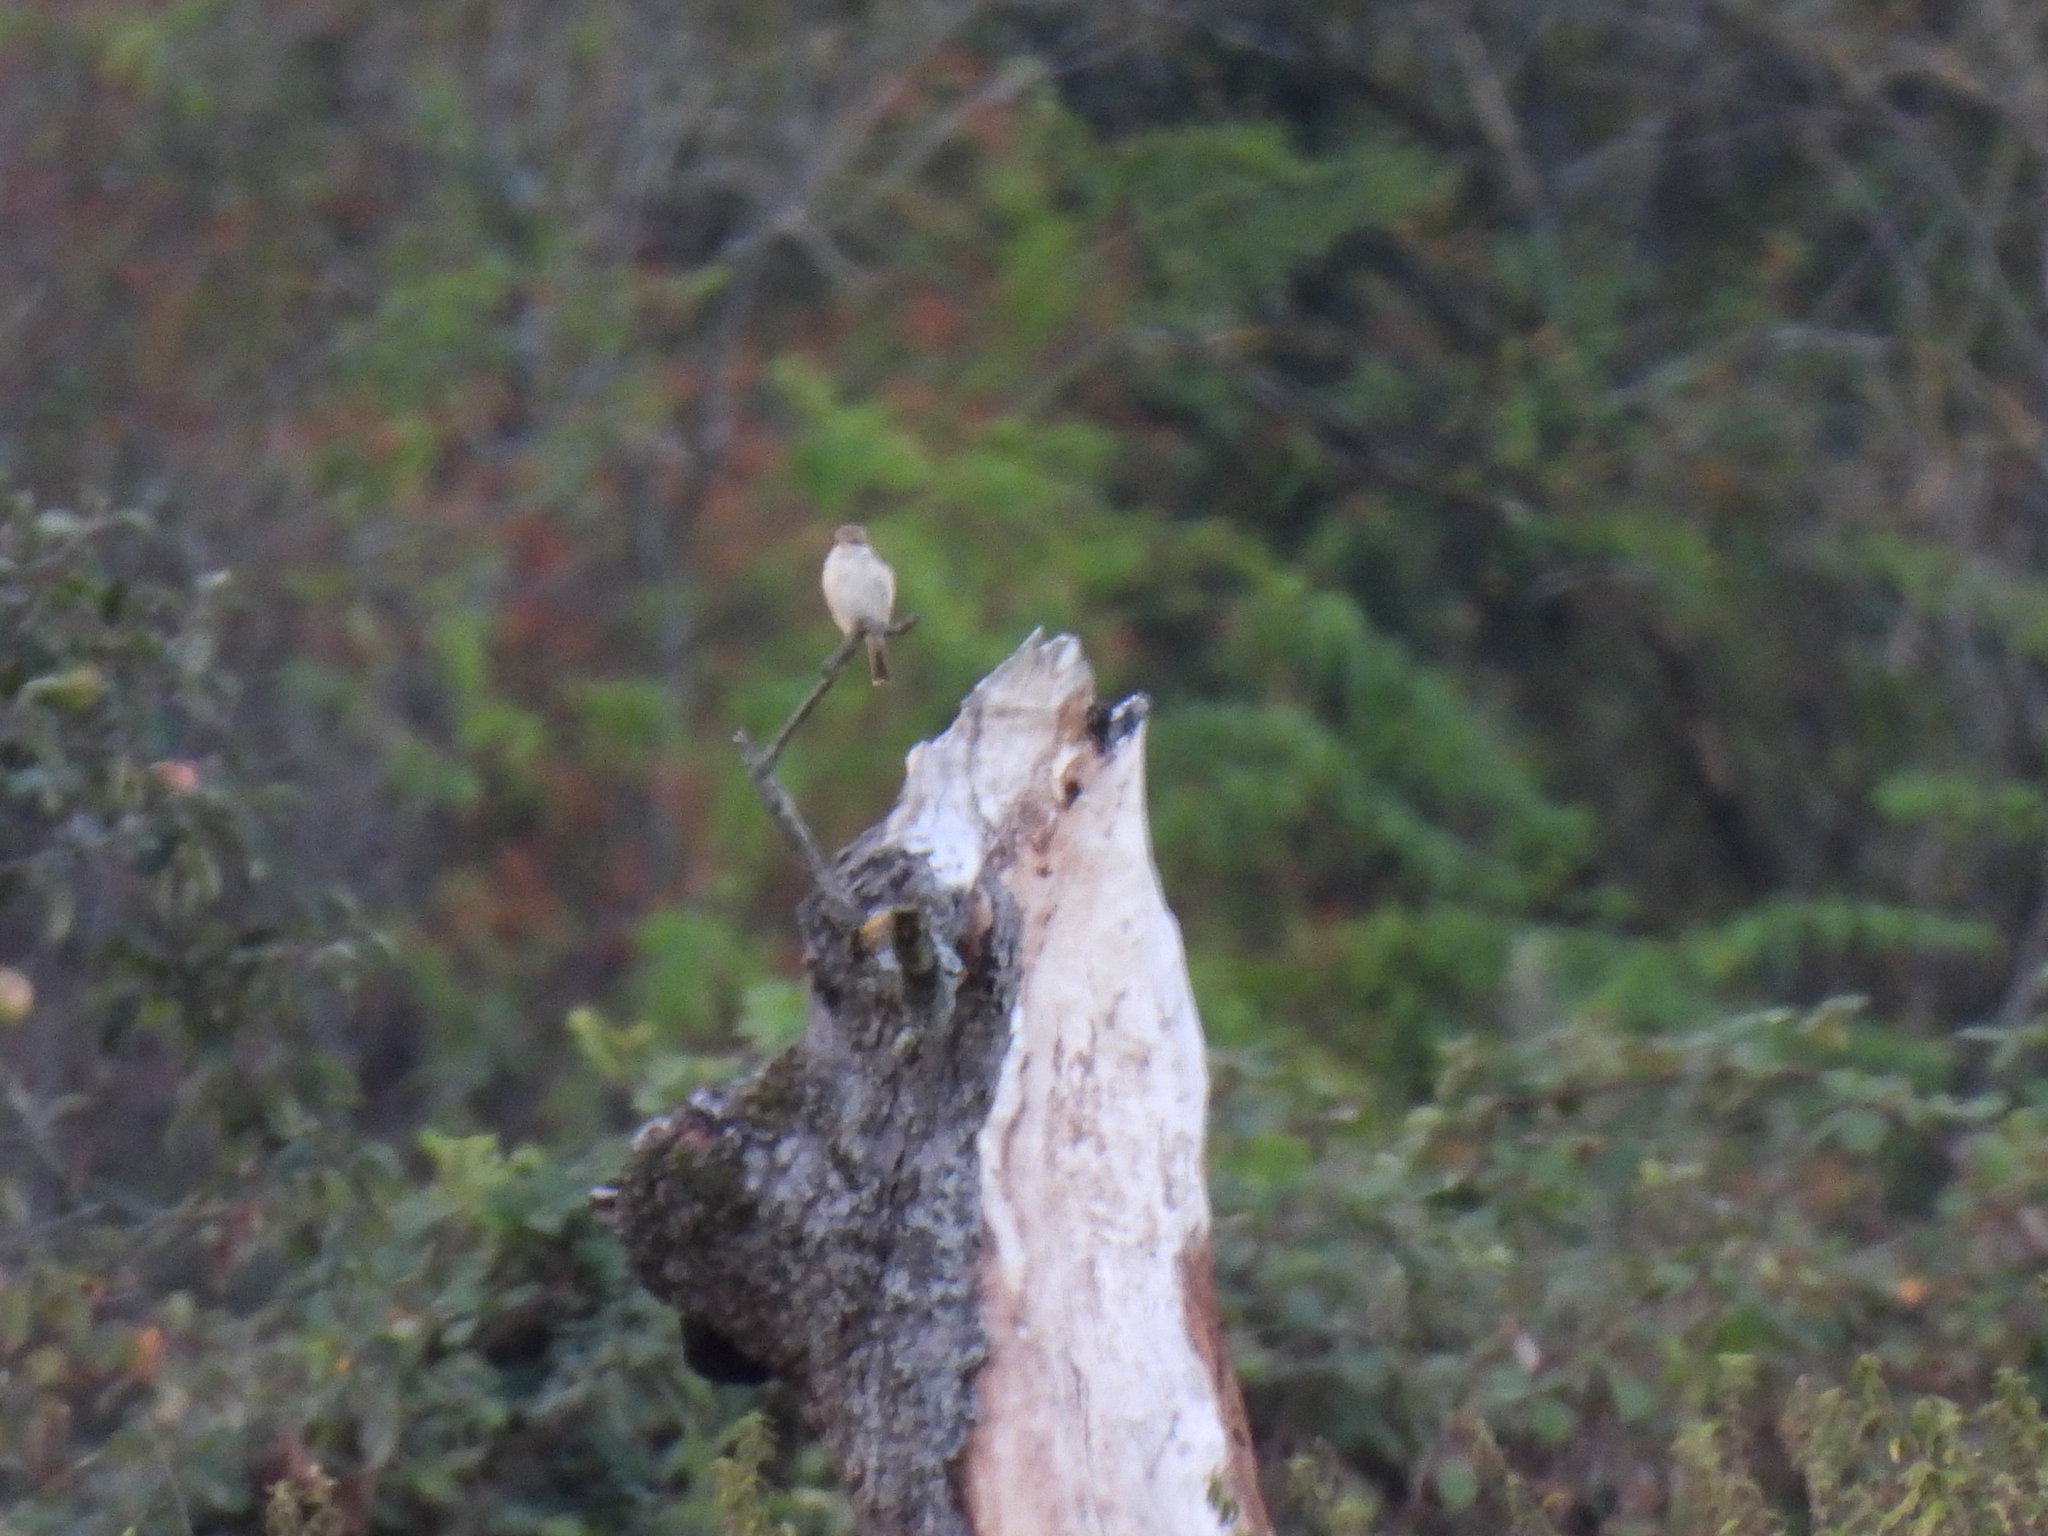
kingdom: Animalia
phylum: Chordata
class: Aves
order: Passeriformes
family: Laniidae
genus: Lanius
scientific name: Lanius collurio
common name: Red-backed shrike
